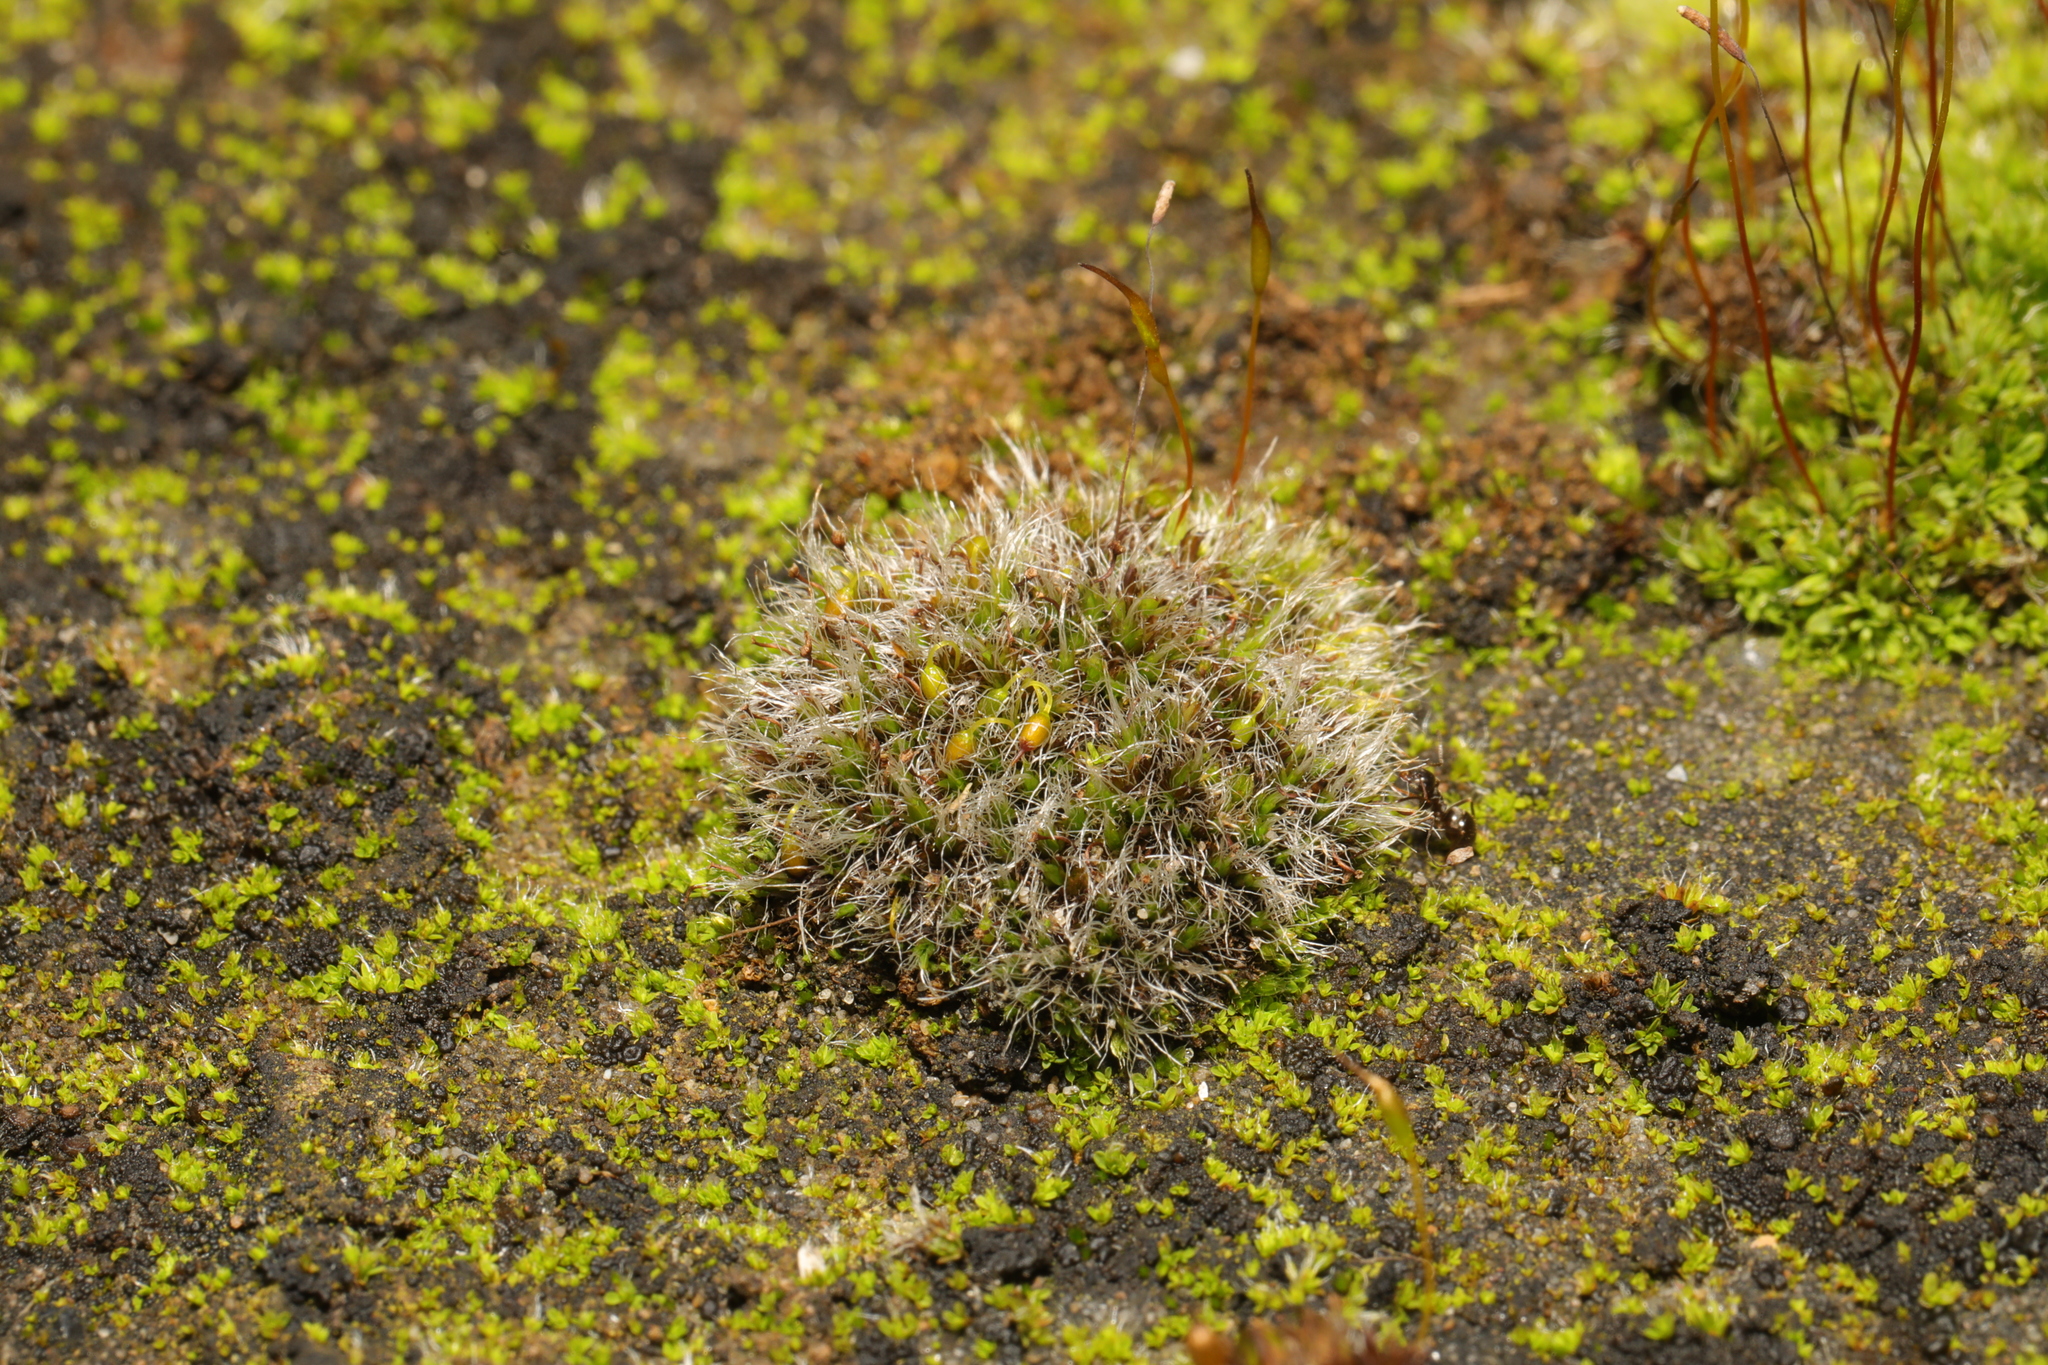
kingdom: Plantae
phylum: Bryophyta
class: Bryopsida
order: Grimmiales
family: Grimmiaceae
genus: Grimmia
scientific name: Grimmia pulvinata
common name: Grey-cushioned grimmia
